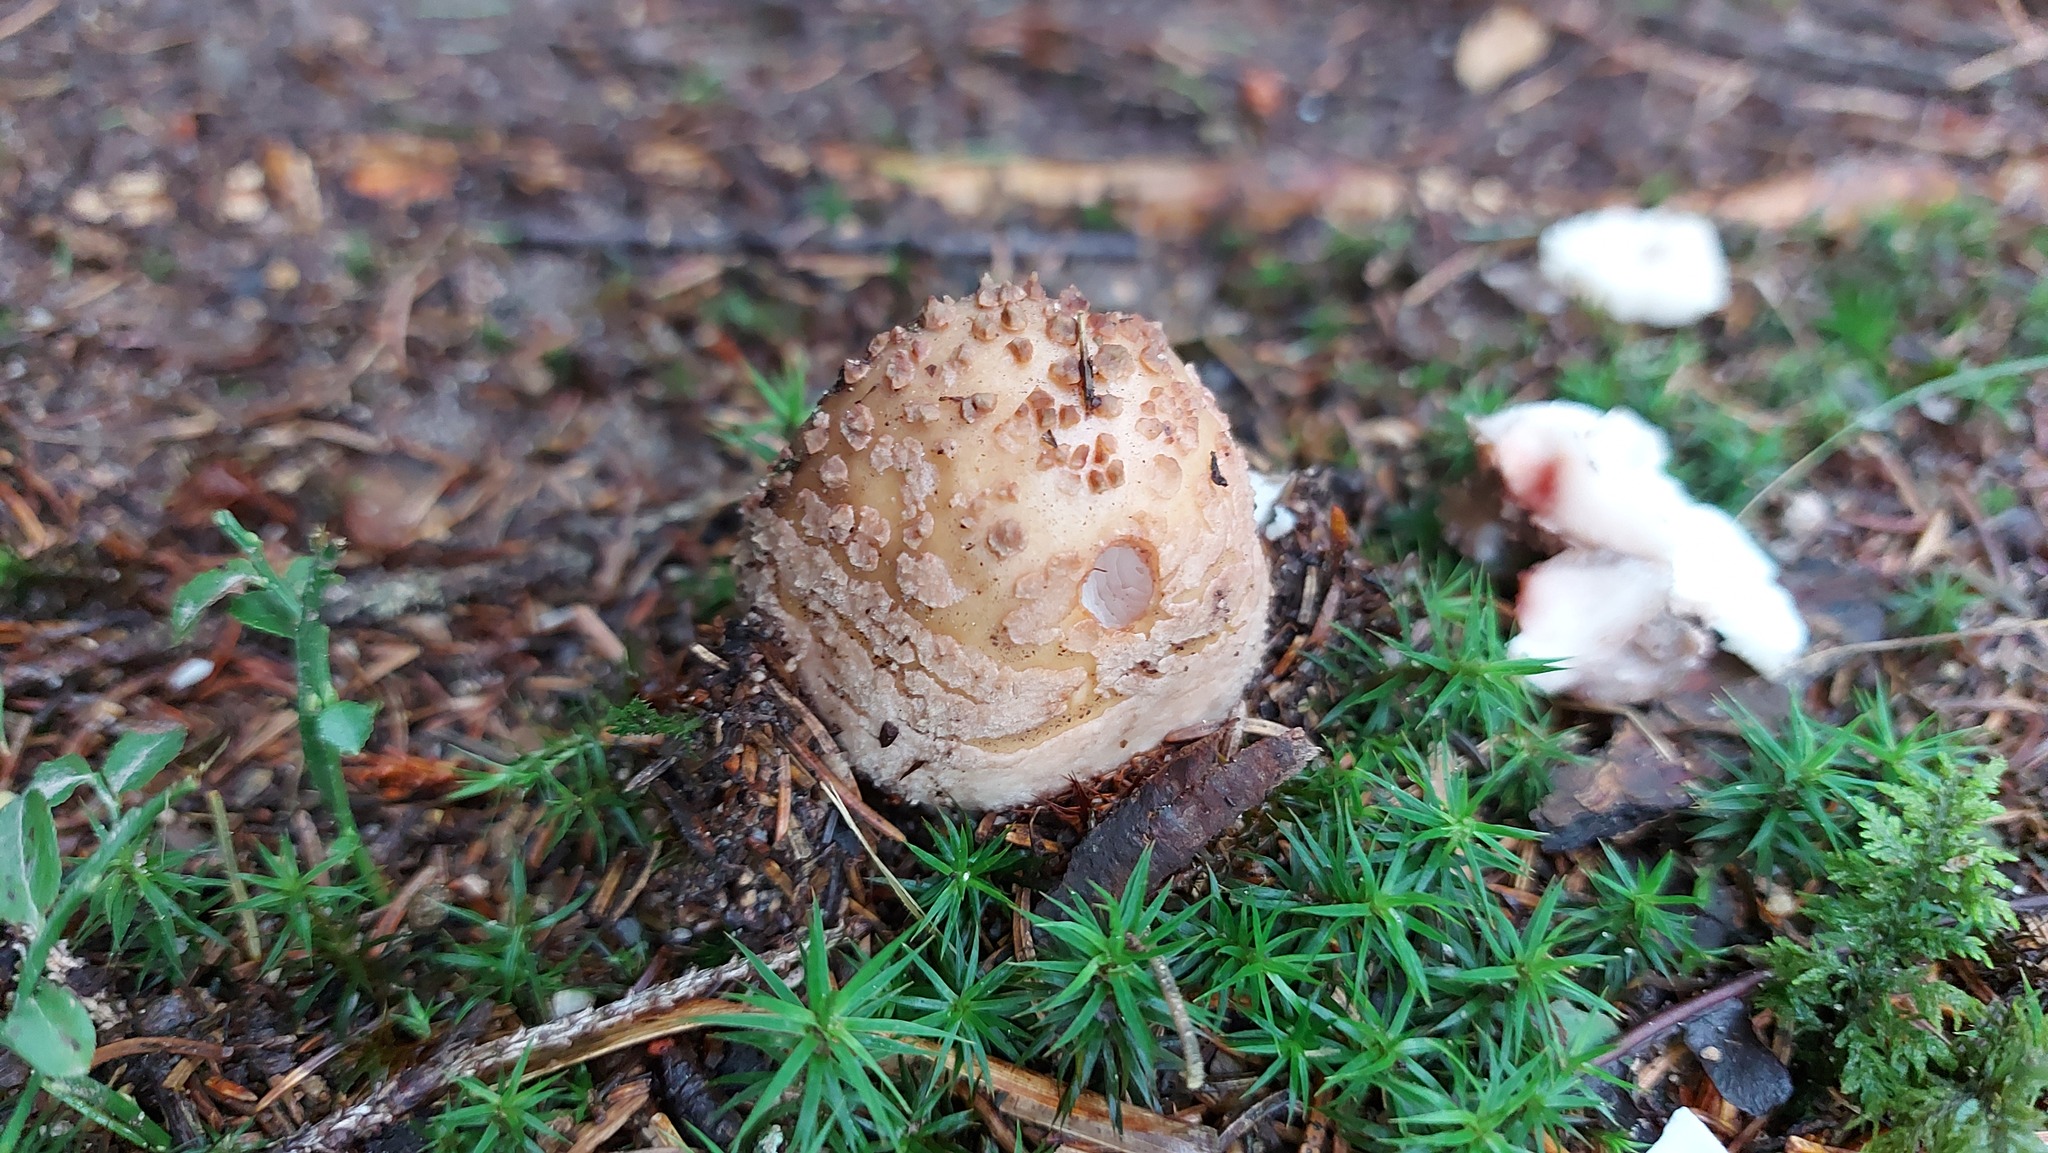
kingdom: Fungi
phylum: Basidiomycota
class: Agaricomycetes
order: Agaricales
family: Amanitaceae
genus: Amanita
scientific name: Amanita rubescens
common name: Blusher
